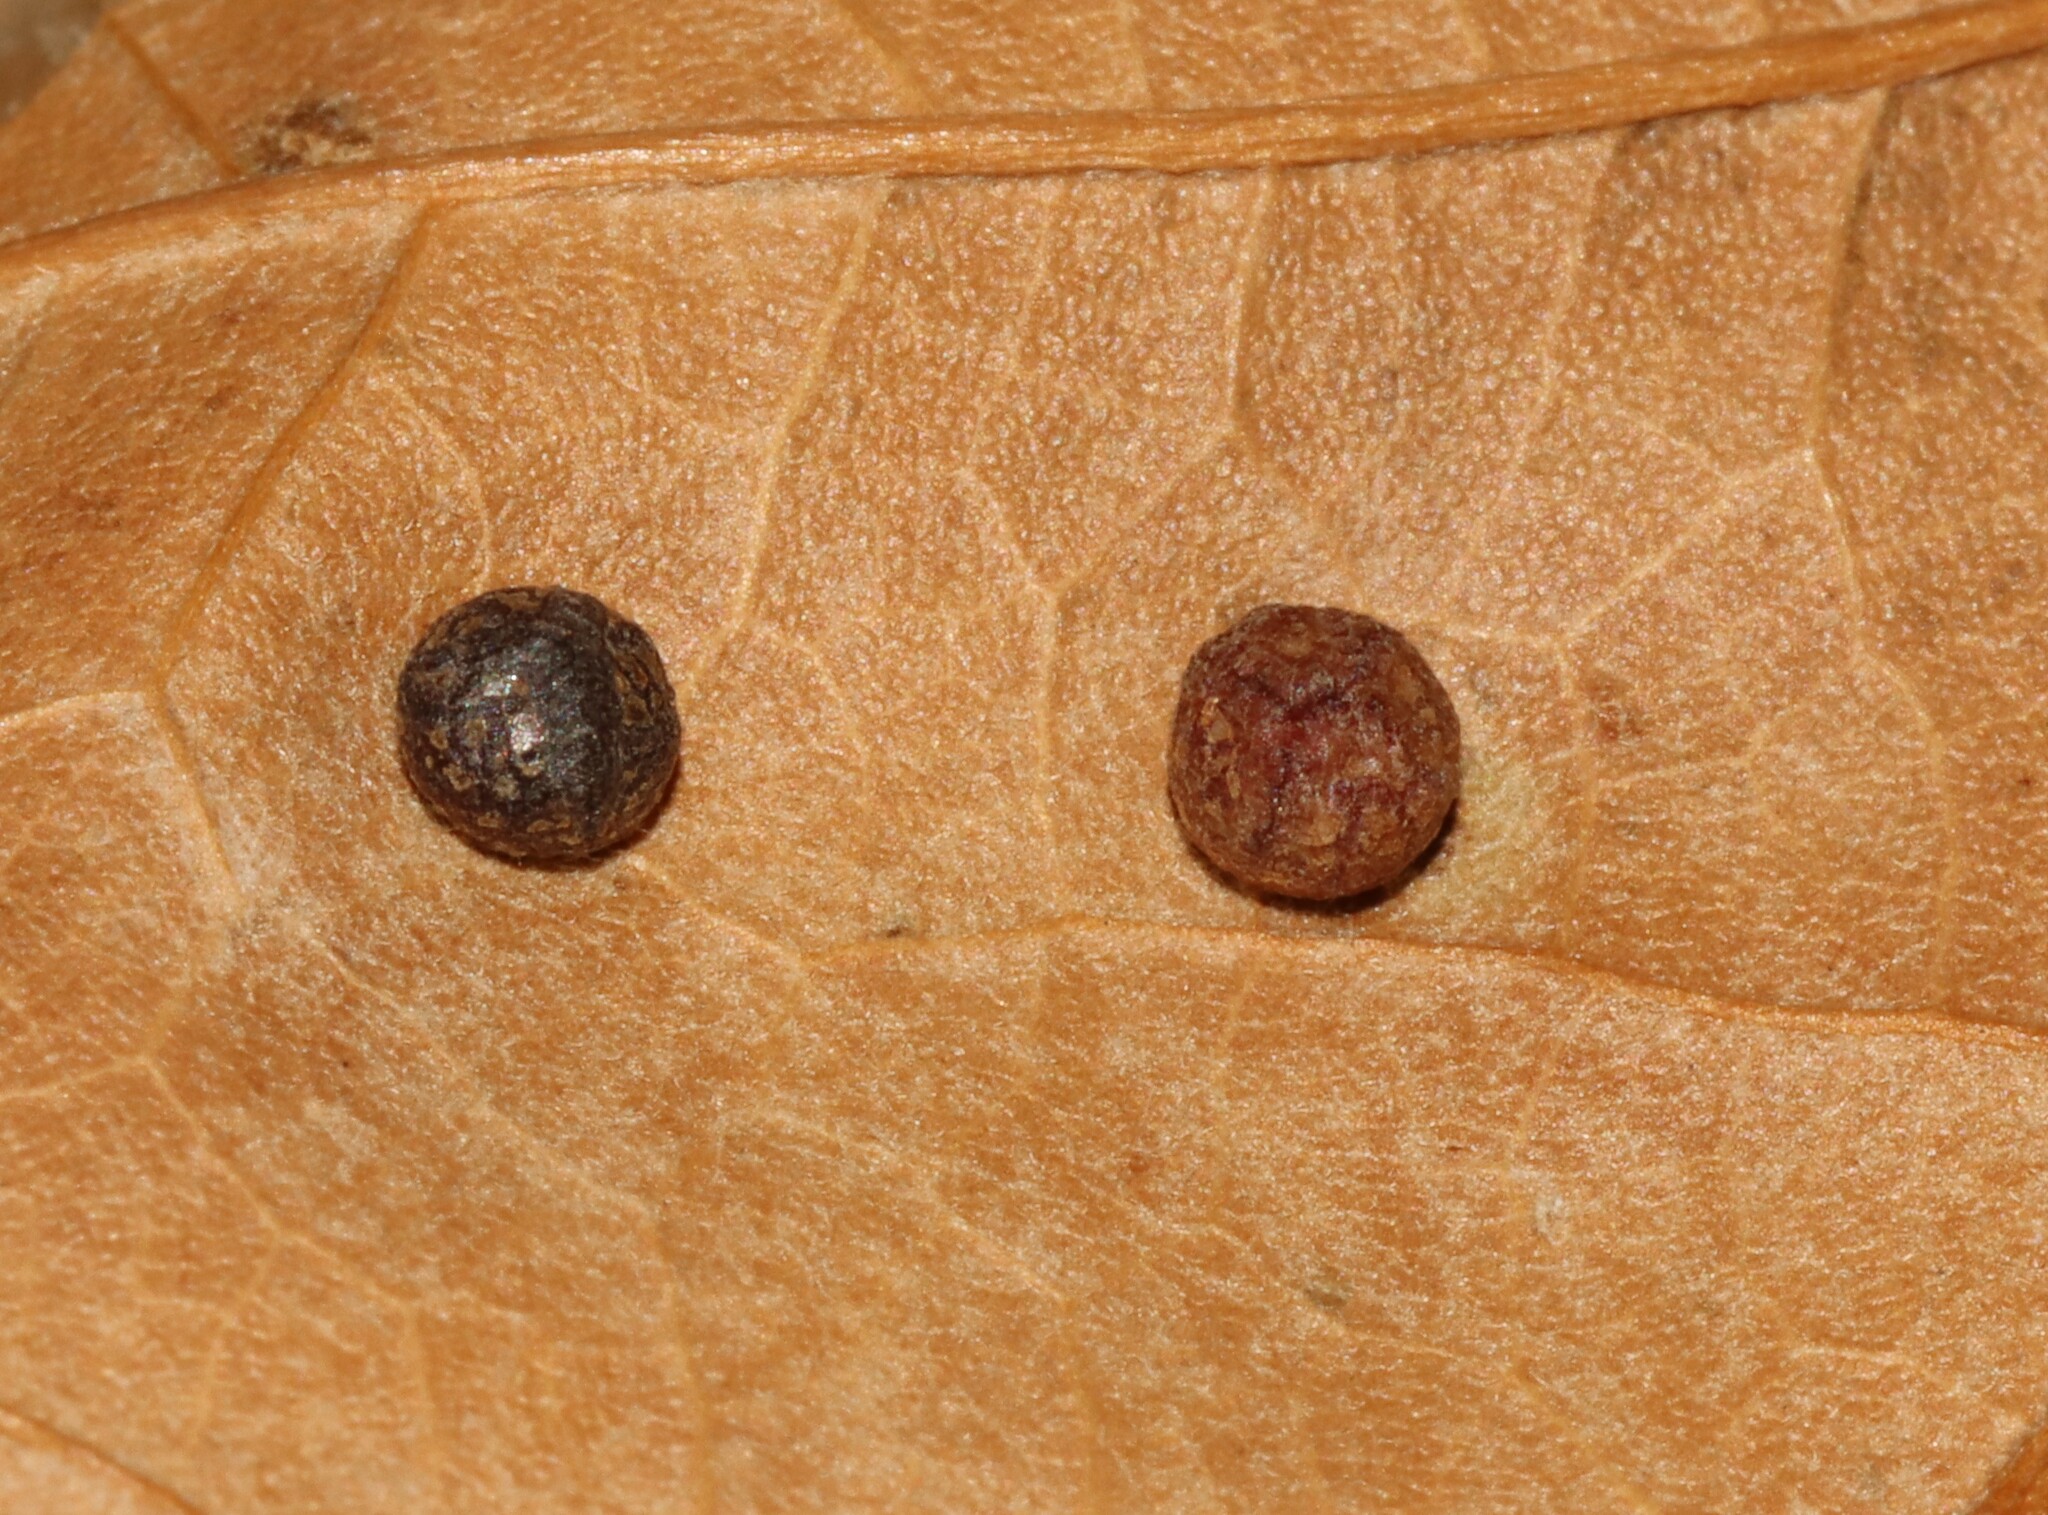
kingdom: Animalia
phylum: Arthropoda
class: Insecta
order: Diptera
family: Cecidomyiidae
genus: Polystepha
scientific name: Polystepha pilulae
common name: Oak leaf gall midge
